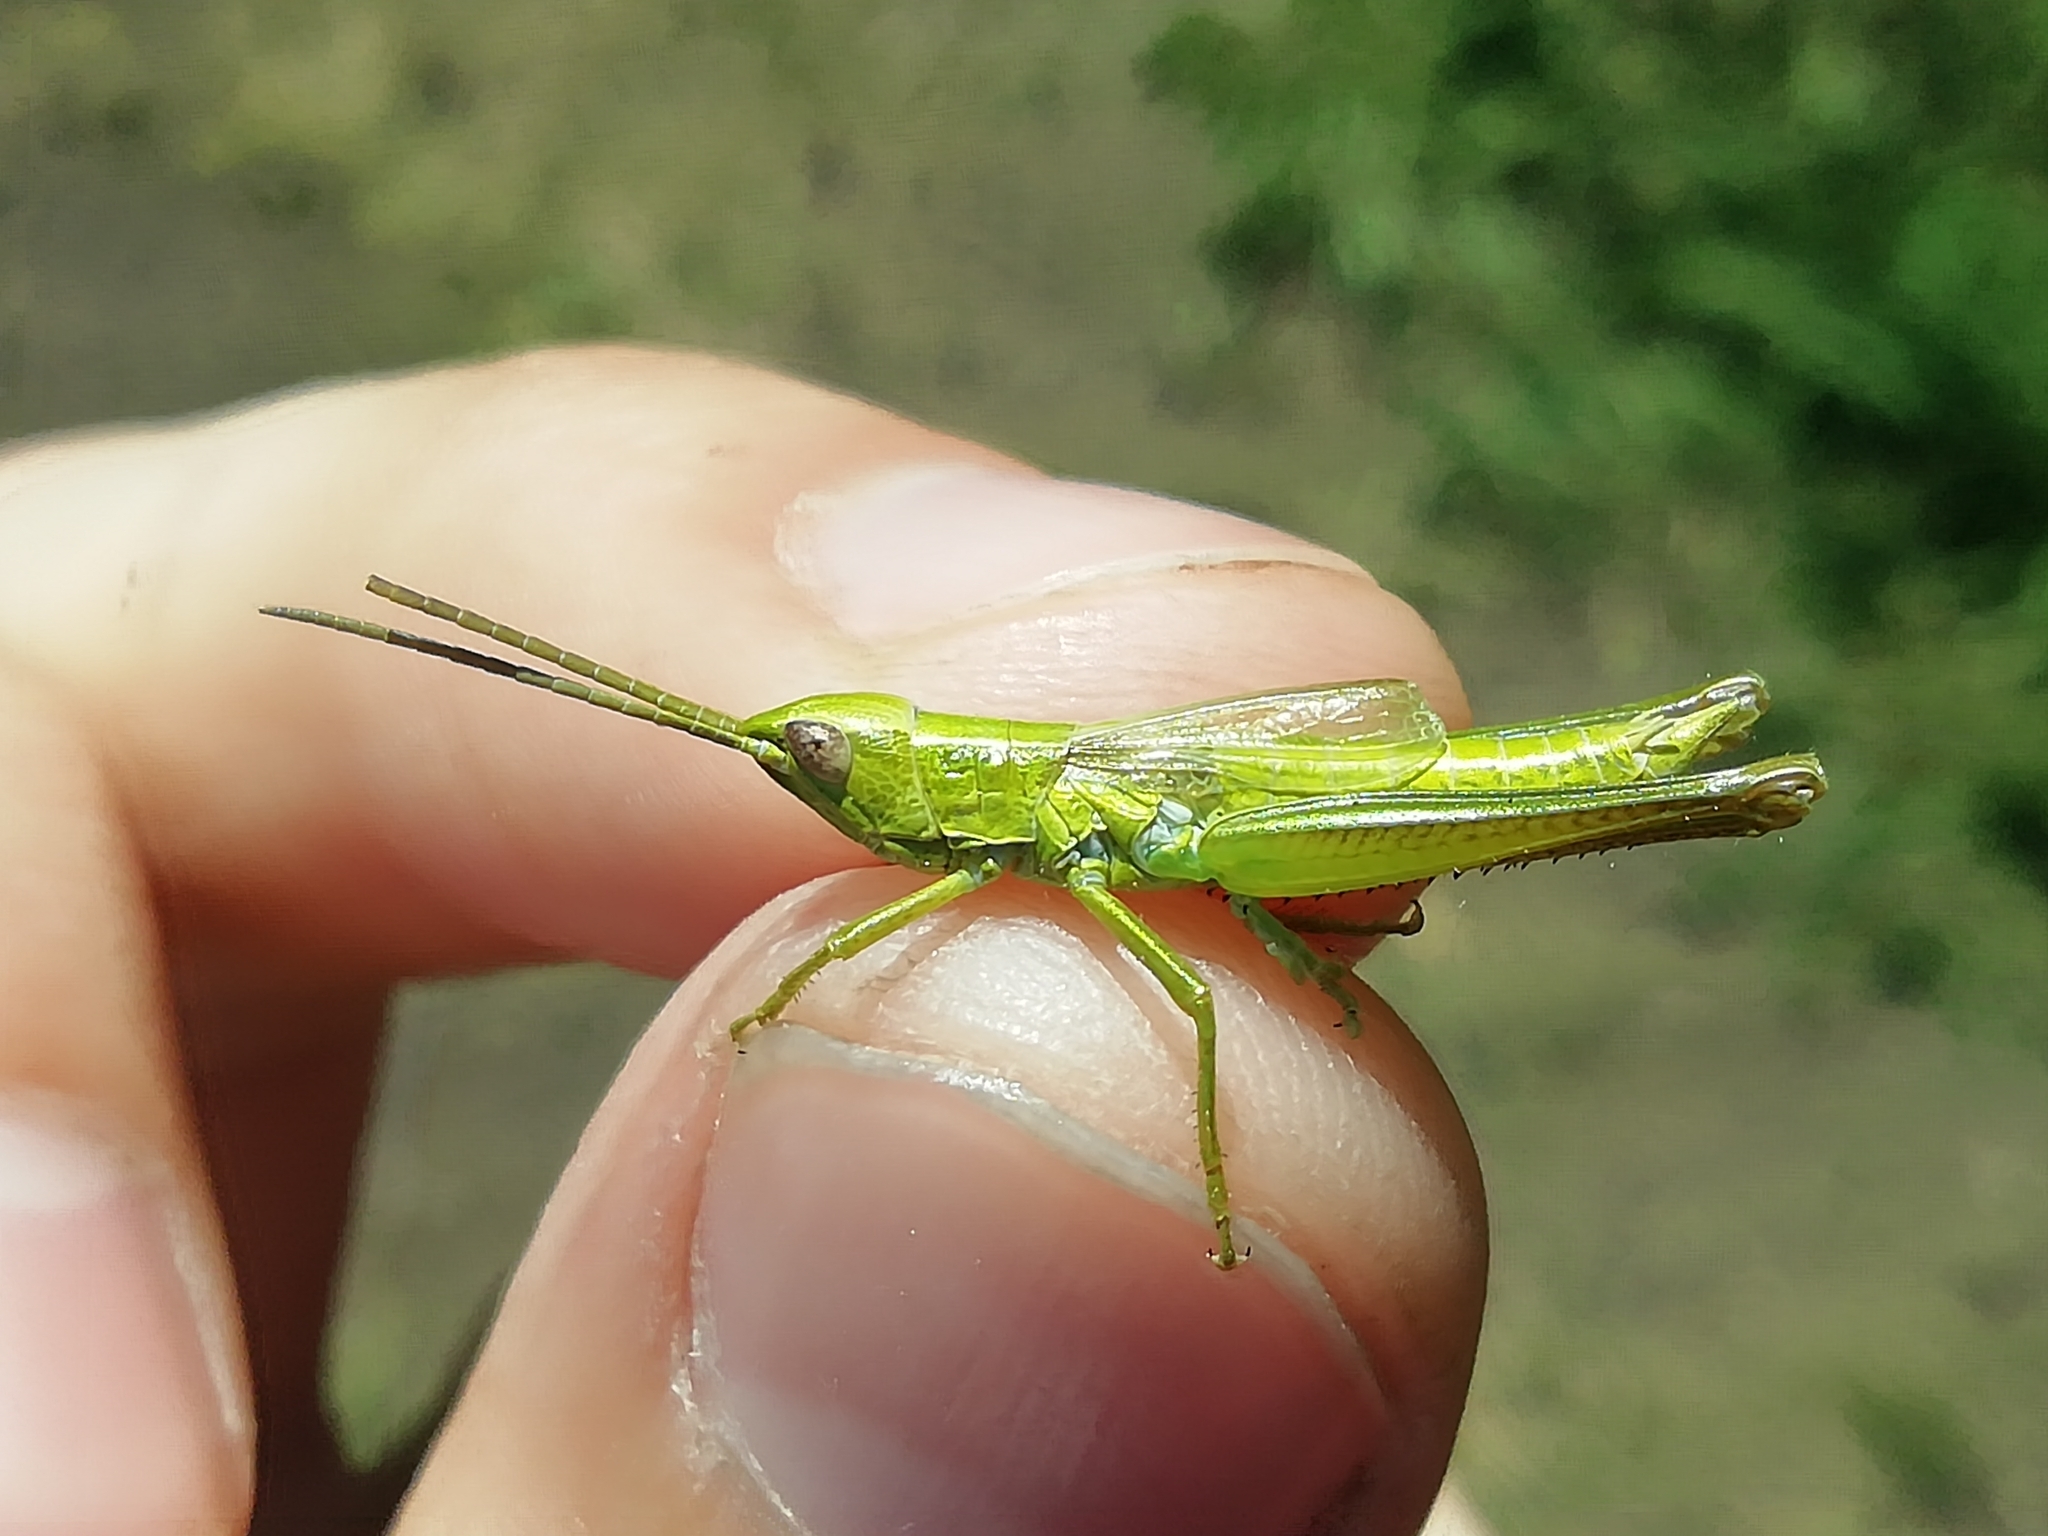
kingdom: Animalia
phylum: Arthropoda
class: Insecta
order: Orthoptera
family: Acrididae
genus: Euthystira
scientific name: Euthystira brachyptera
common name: Small gold grasshopper
